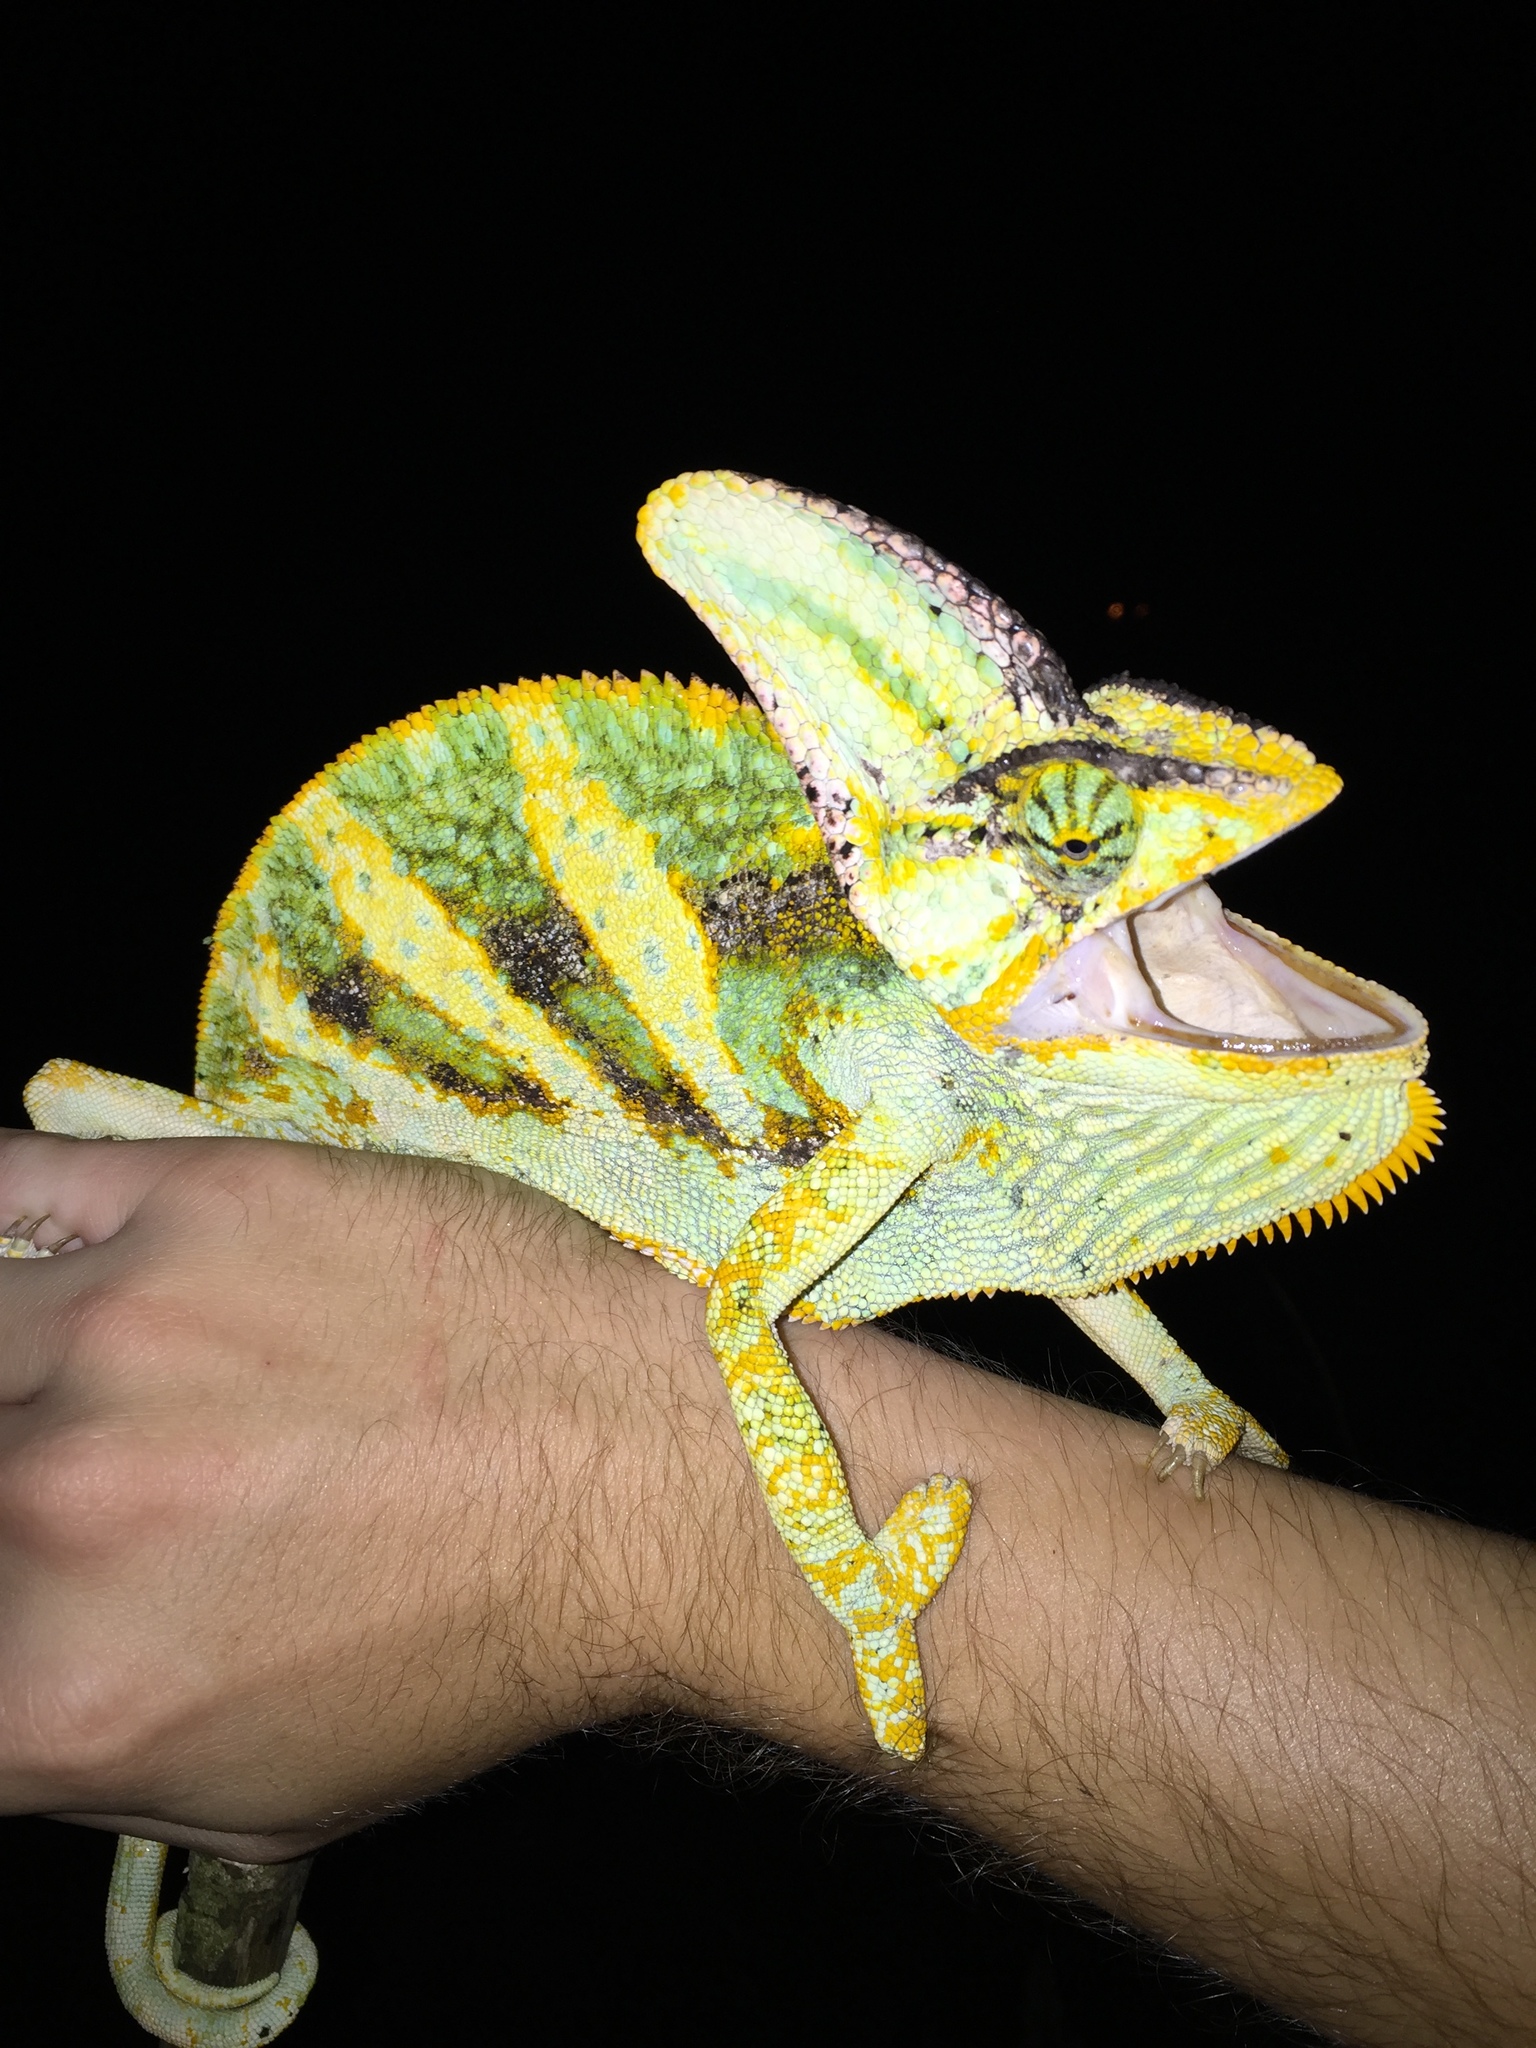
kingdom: Animalia
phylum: Chordata
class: Squamata
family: Chamaeleonidae
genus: Chamaeleo
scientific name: Chamaeleo calyptratus
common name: Veiled chameleon
